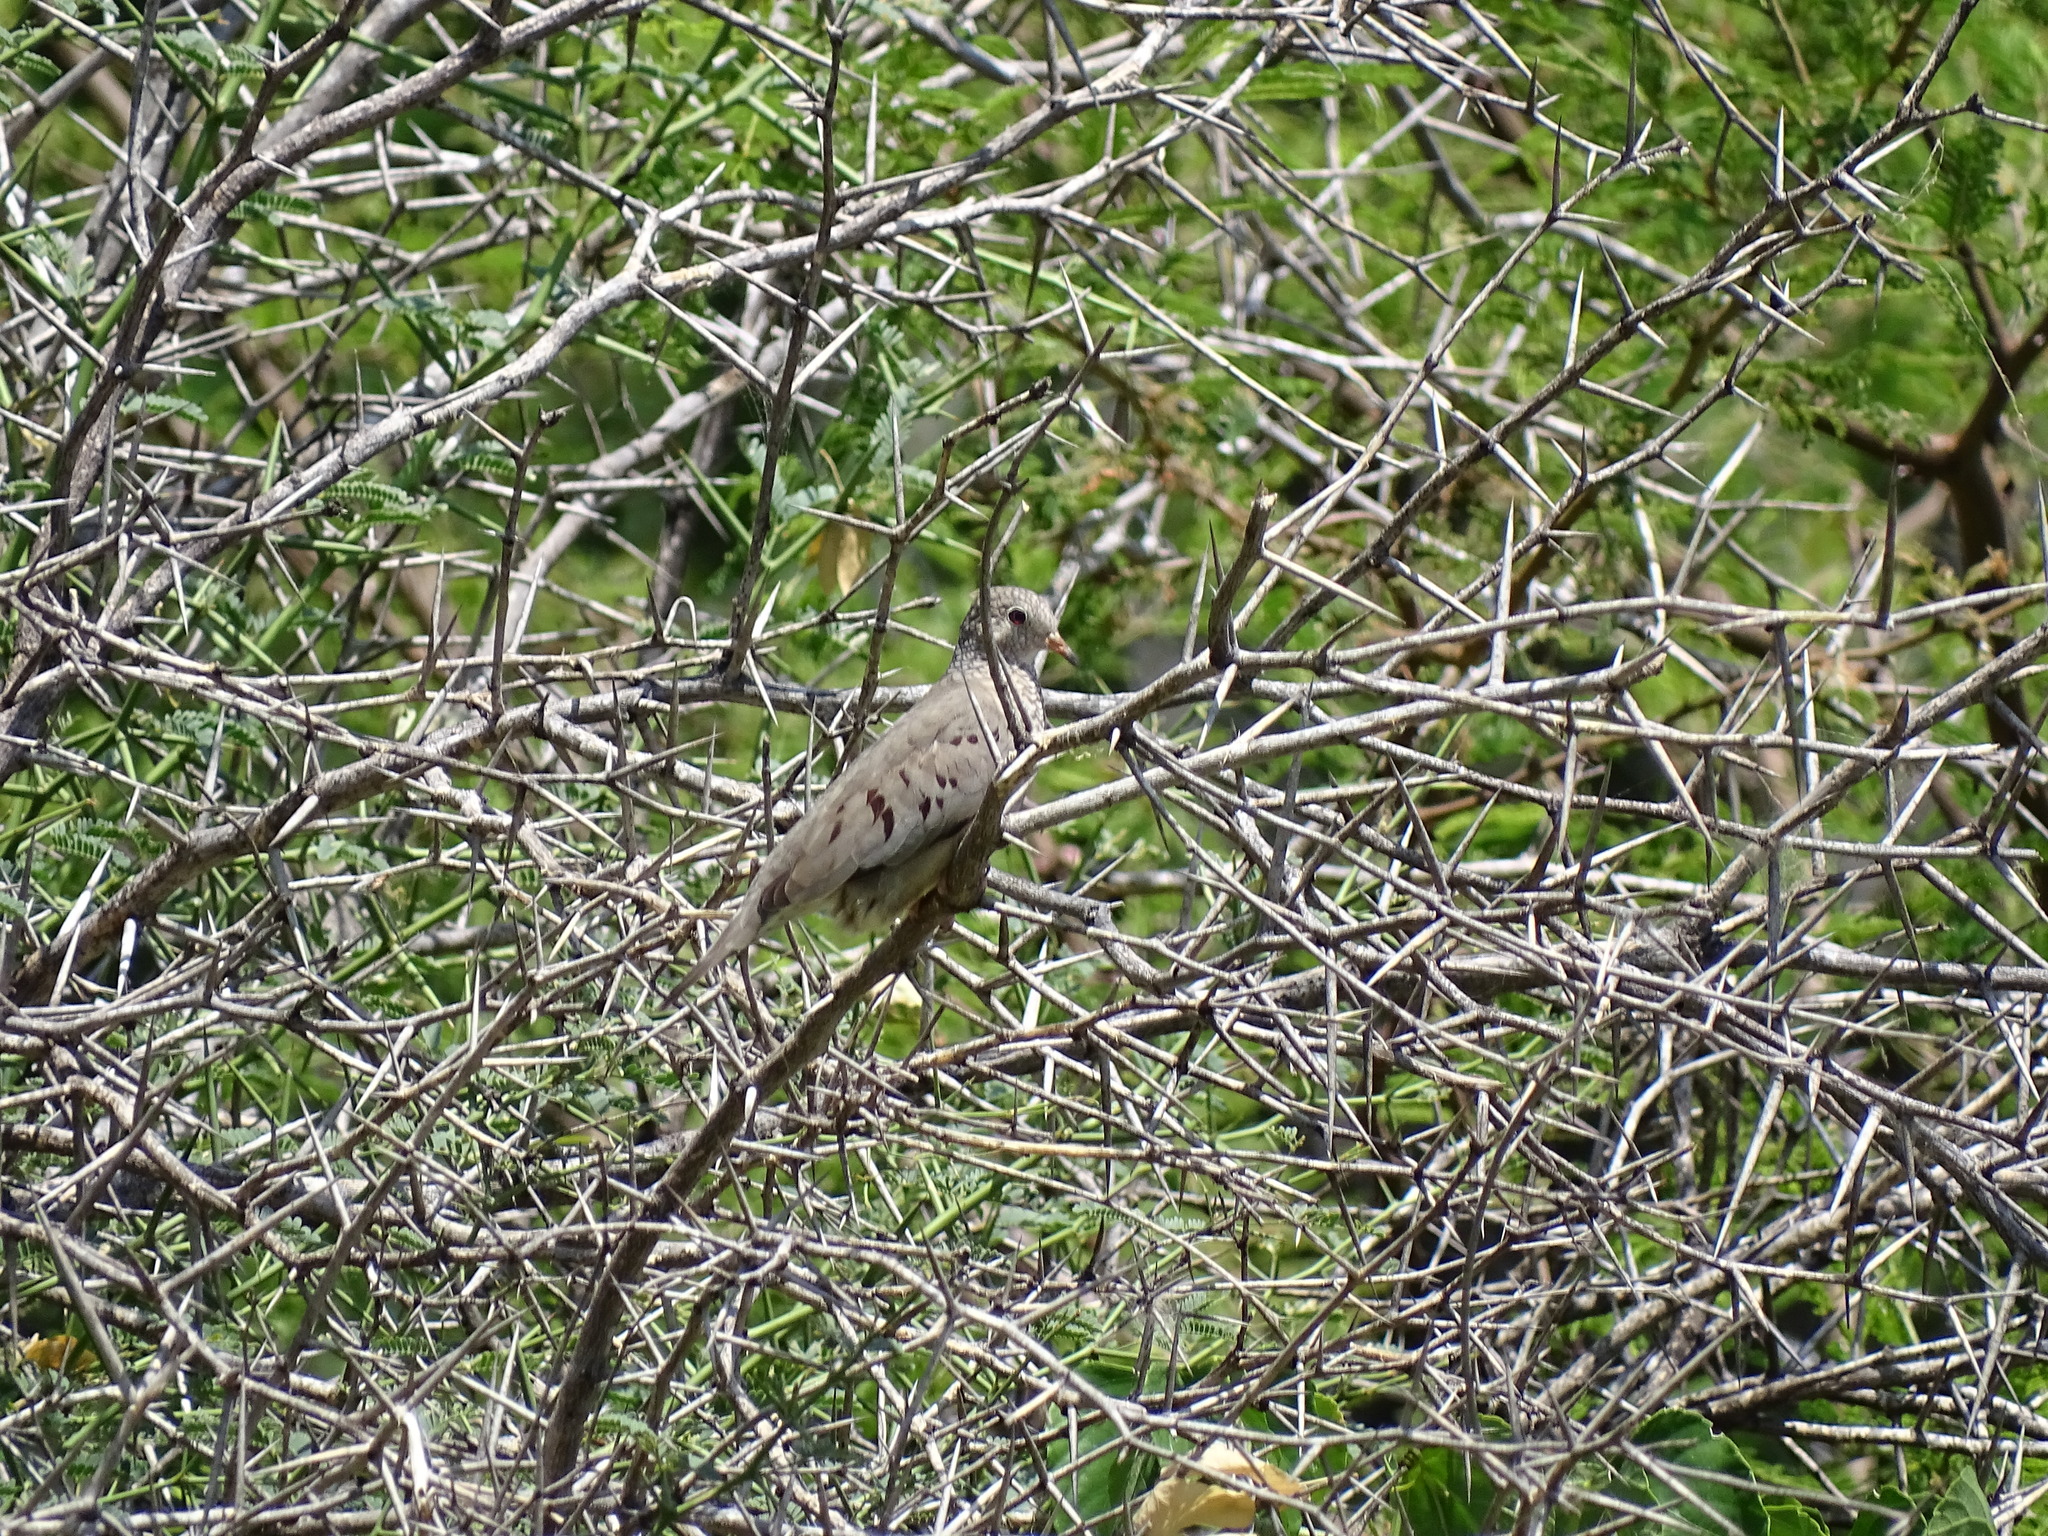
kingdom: Animalia
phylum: Chordata
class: Aves
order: Columbiformes
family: Columbidae
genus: Columbina
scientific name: Columbina passerina
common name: Common ground-dove
